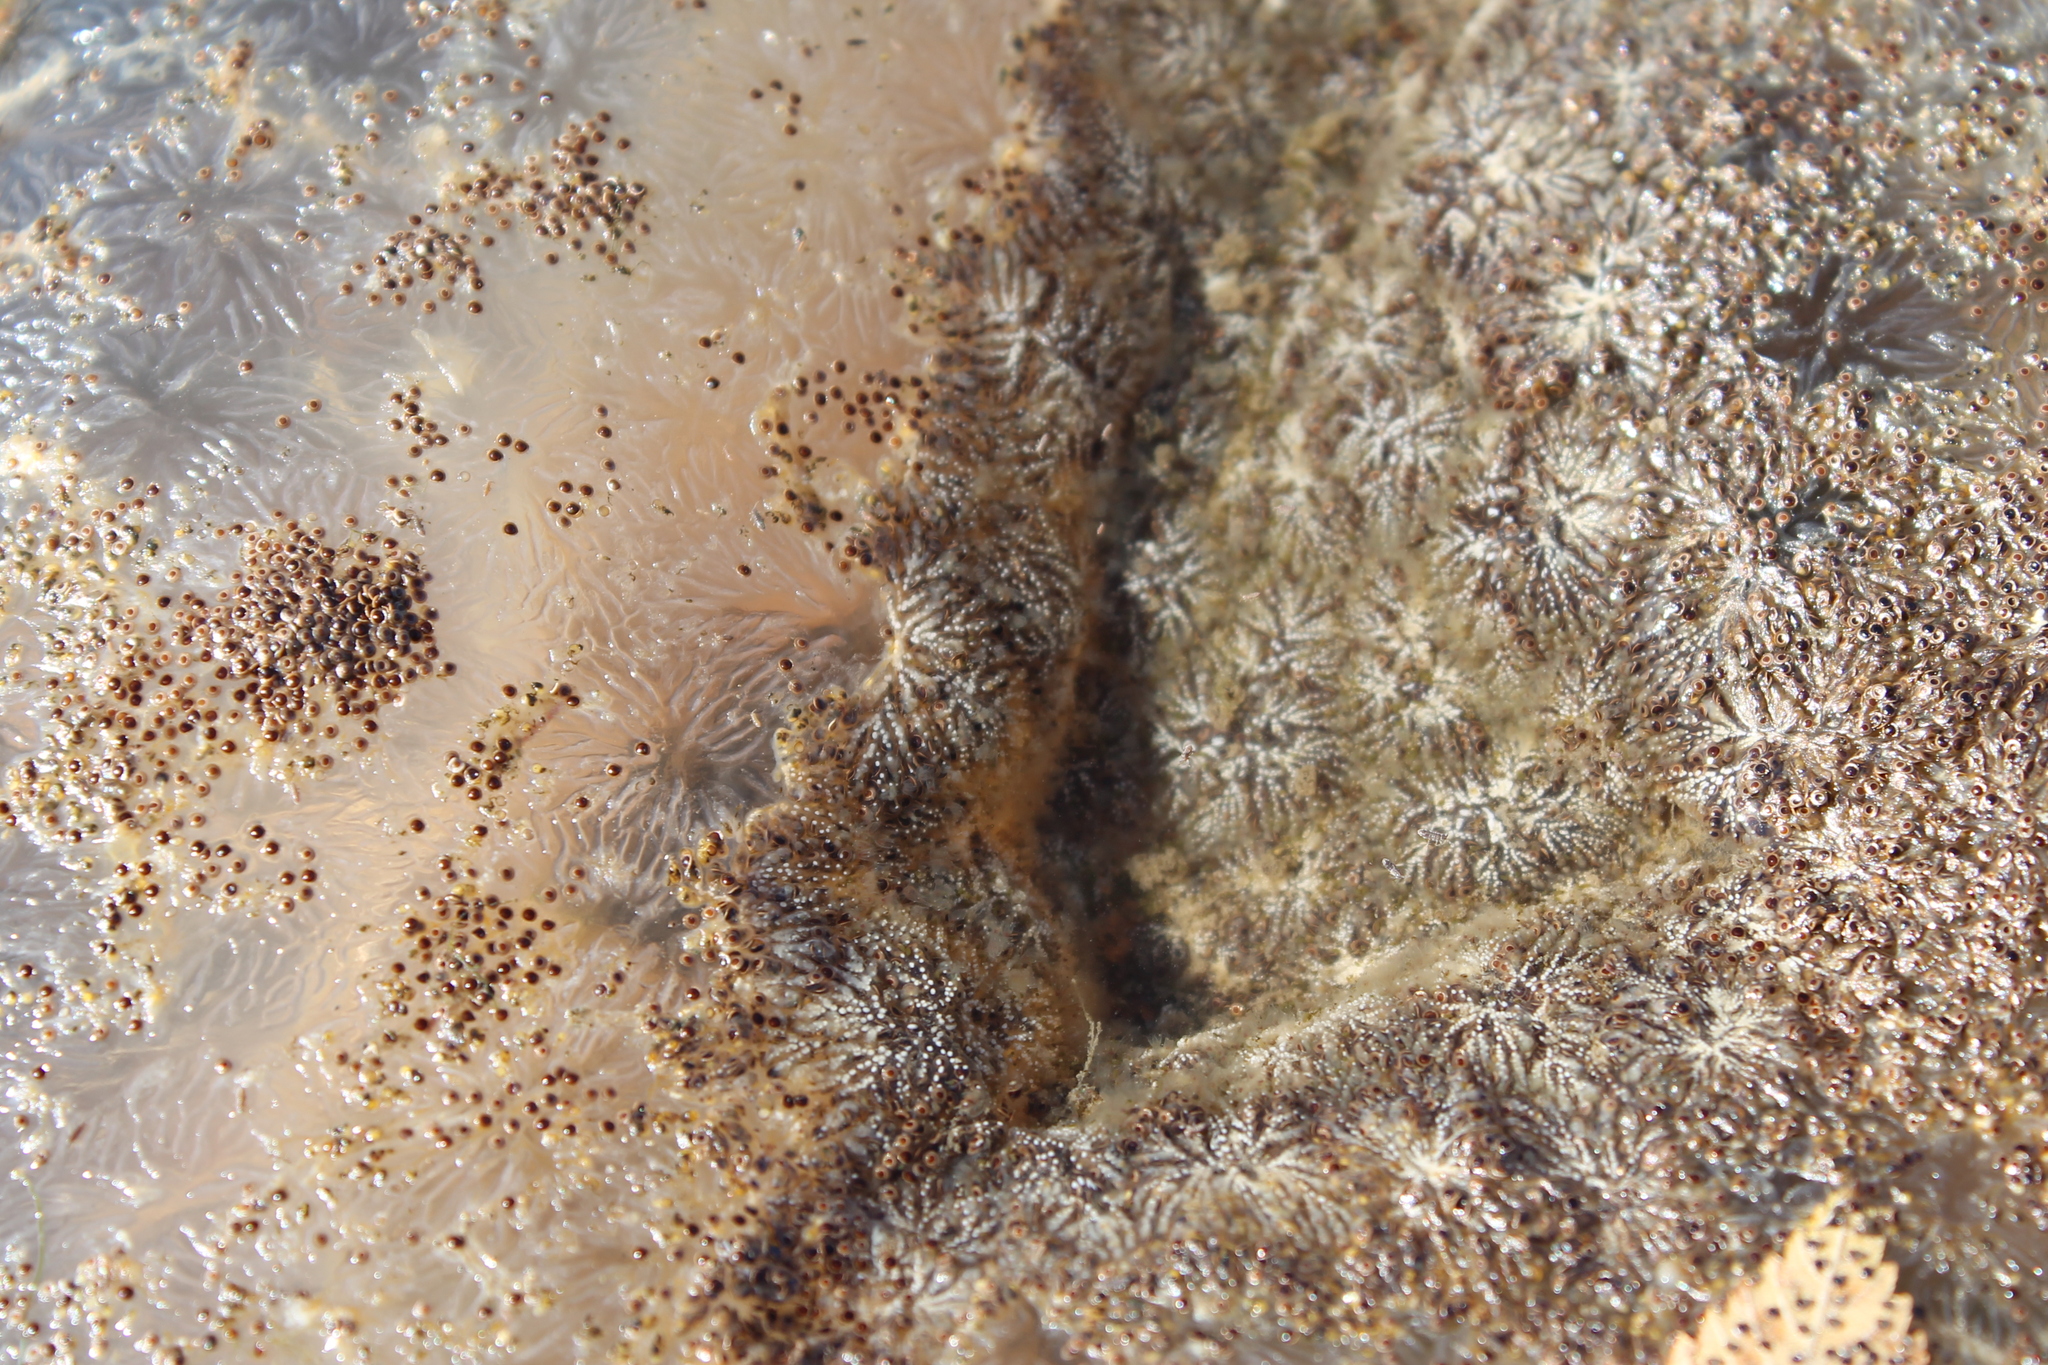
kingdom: Animalia
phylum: Bryozoa
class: Phylactolaemata
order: Plumatellida
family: Pectinatellidae
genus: Pectinatella
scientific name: Pectinatella magnifica
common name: Magnificent bryozoan
